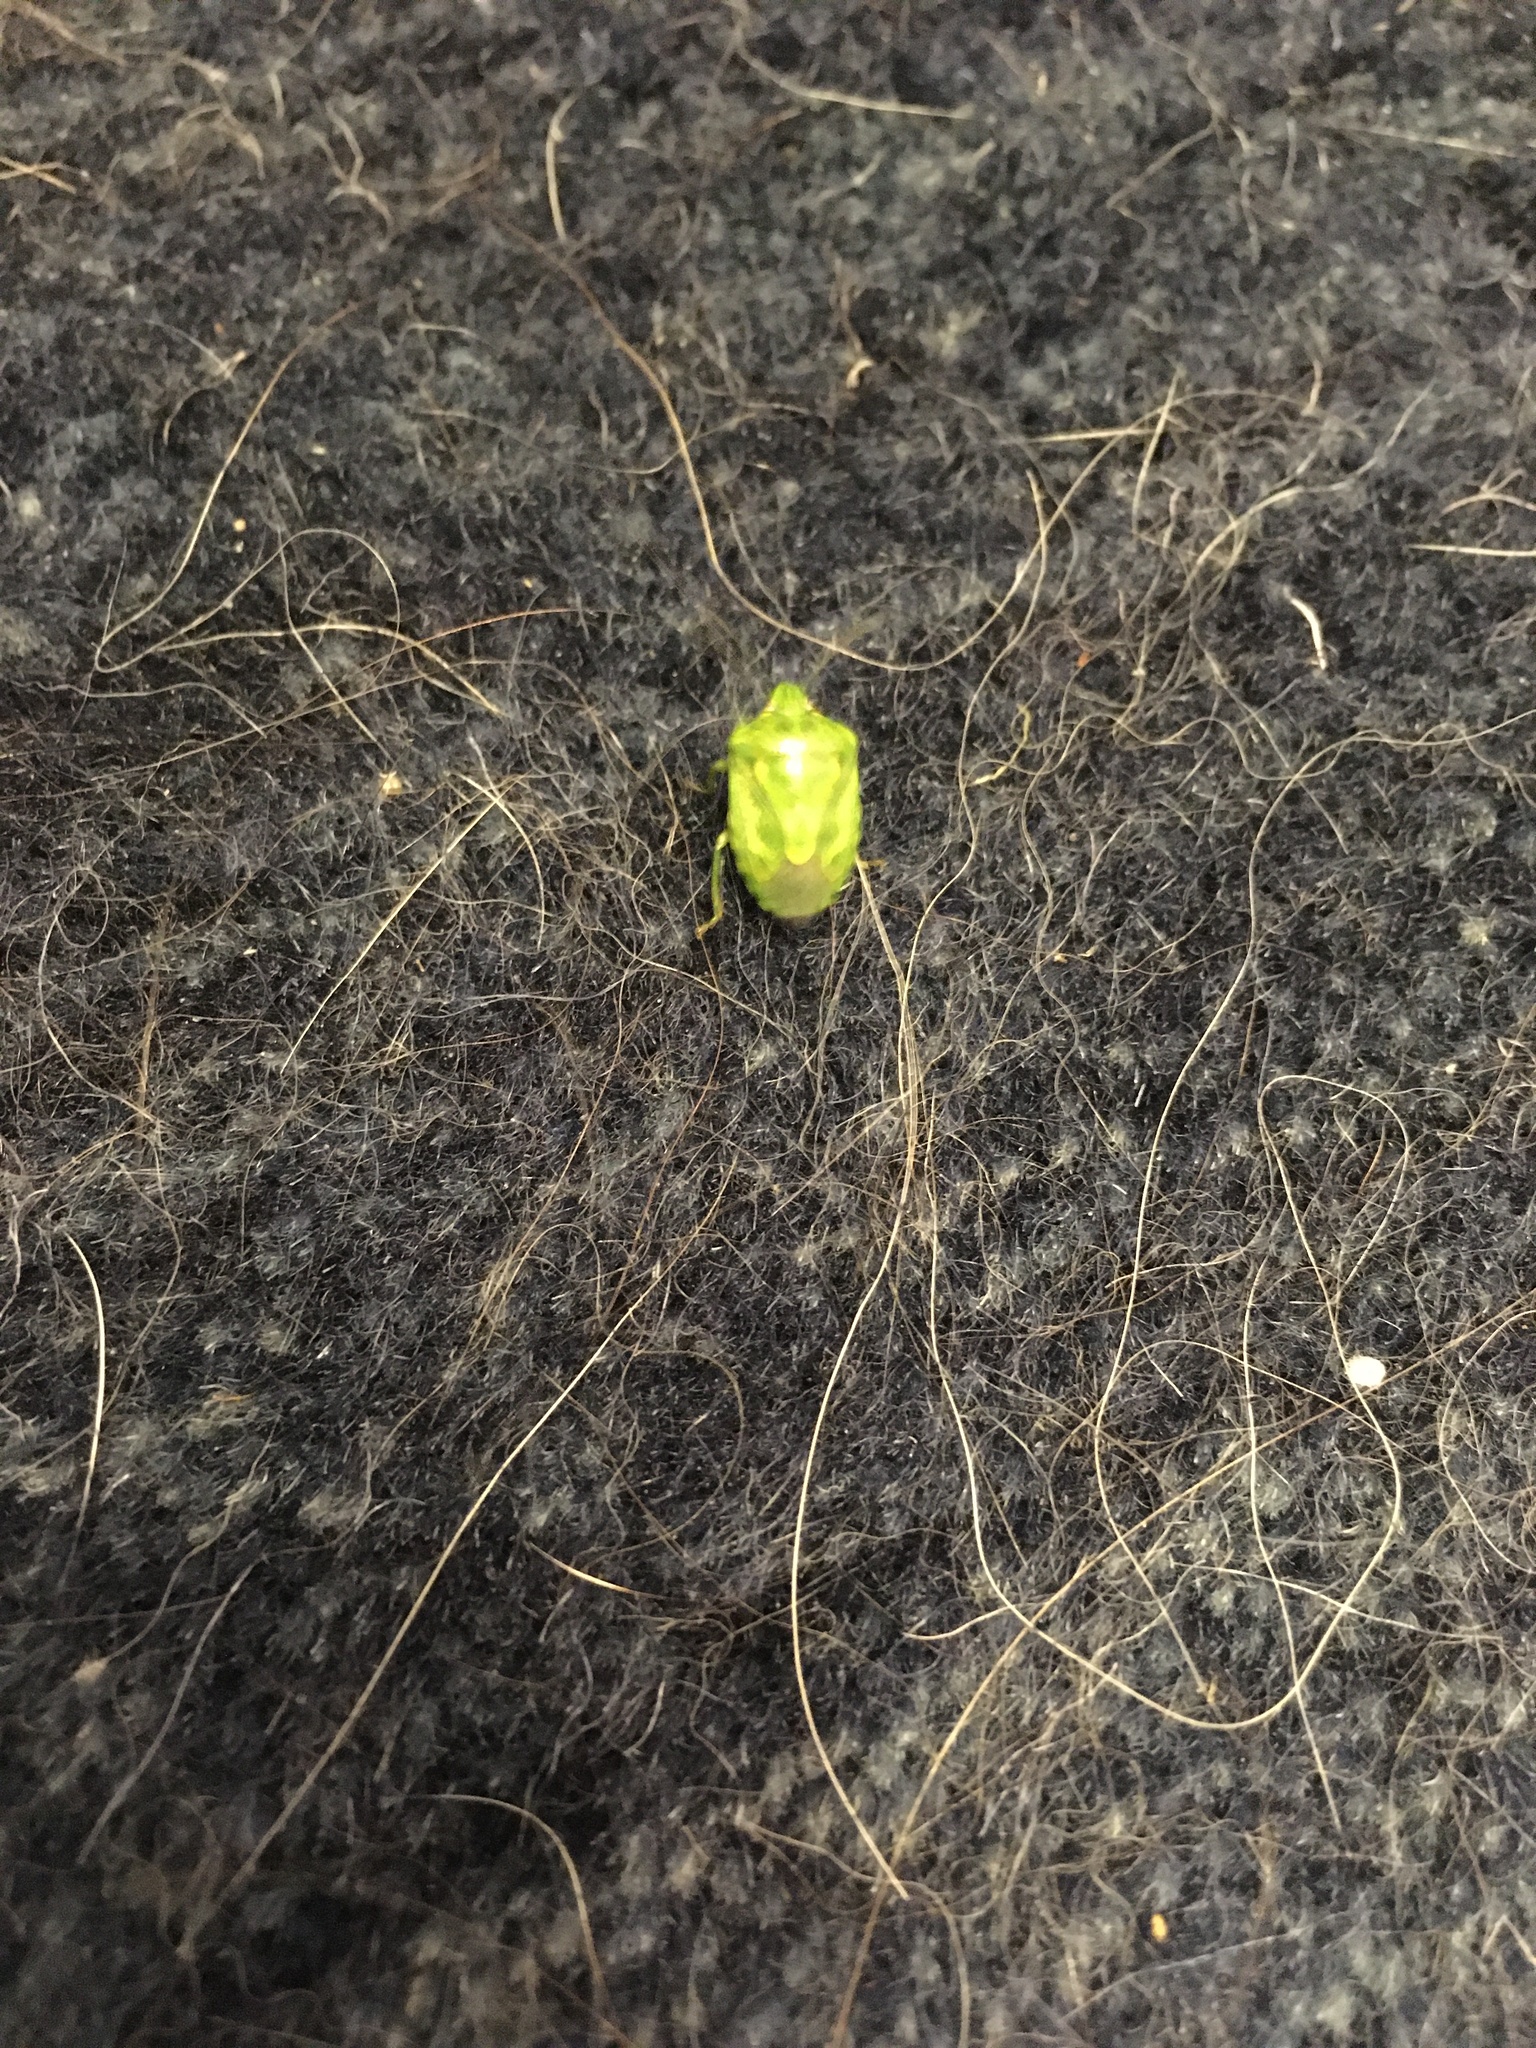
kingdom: Animalia
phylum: Arthropoda
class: Insecta
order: Hemiptera
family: Pentatomidae
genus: Banasa
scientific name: Banasa euchlora
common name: Cedar berry bug
